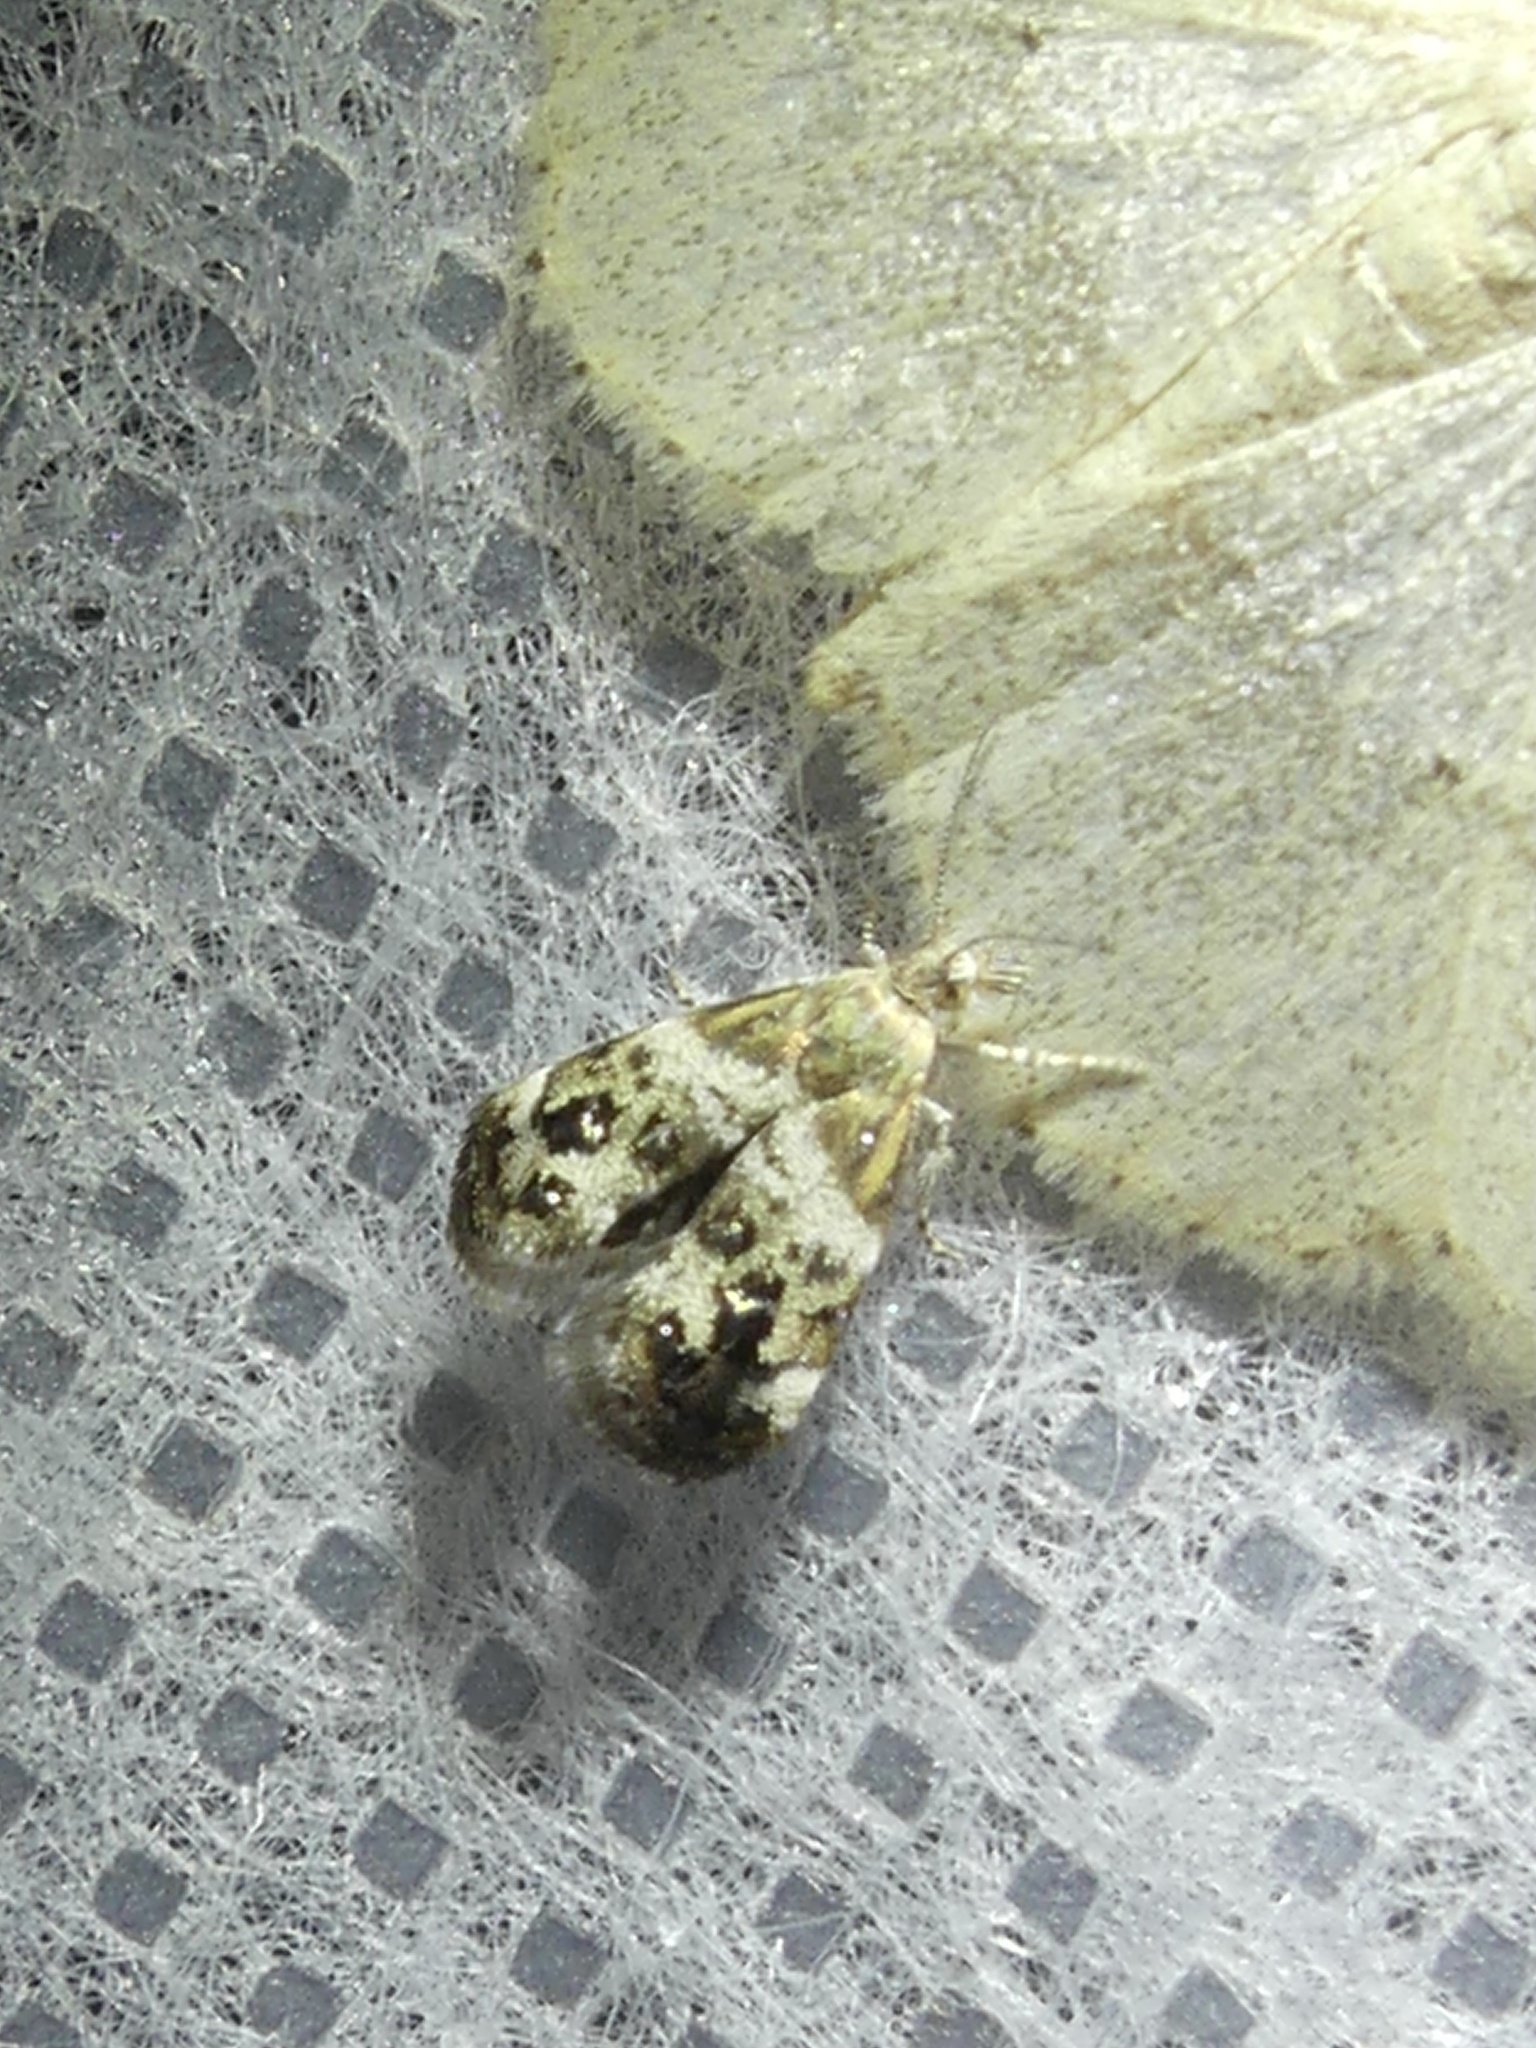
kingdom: Animalia
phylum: Arthropoda
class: Insecta
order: Lepidoptera
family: Choreutidae
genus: Tebenna
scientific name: Tebenna micalis
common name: Vagrant twitcher
